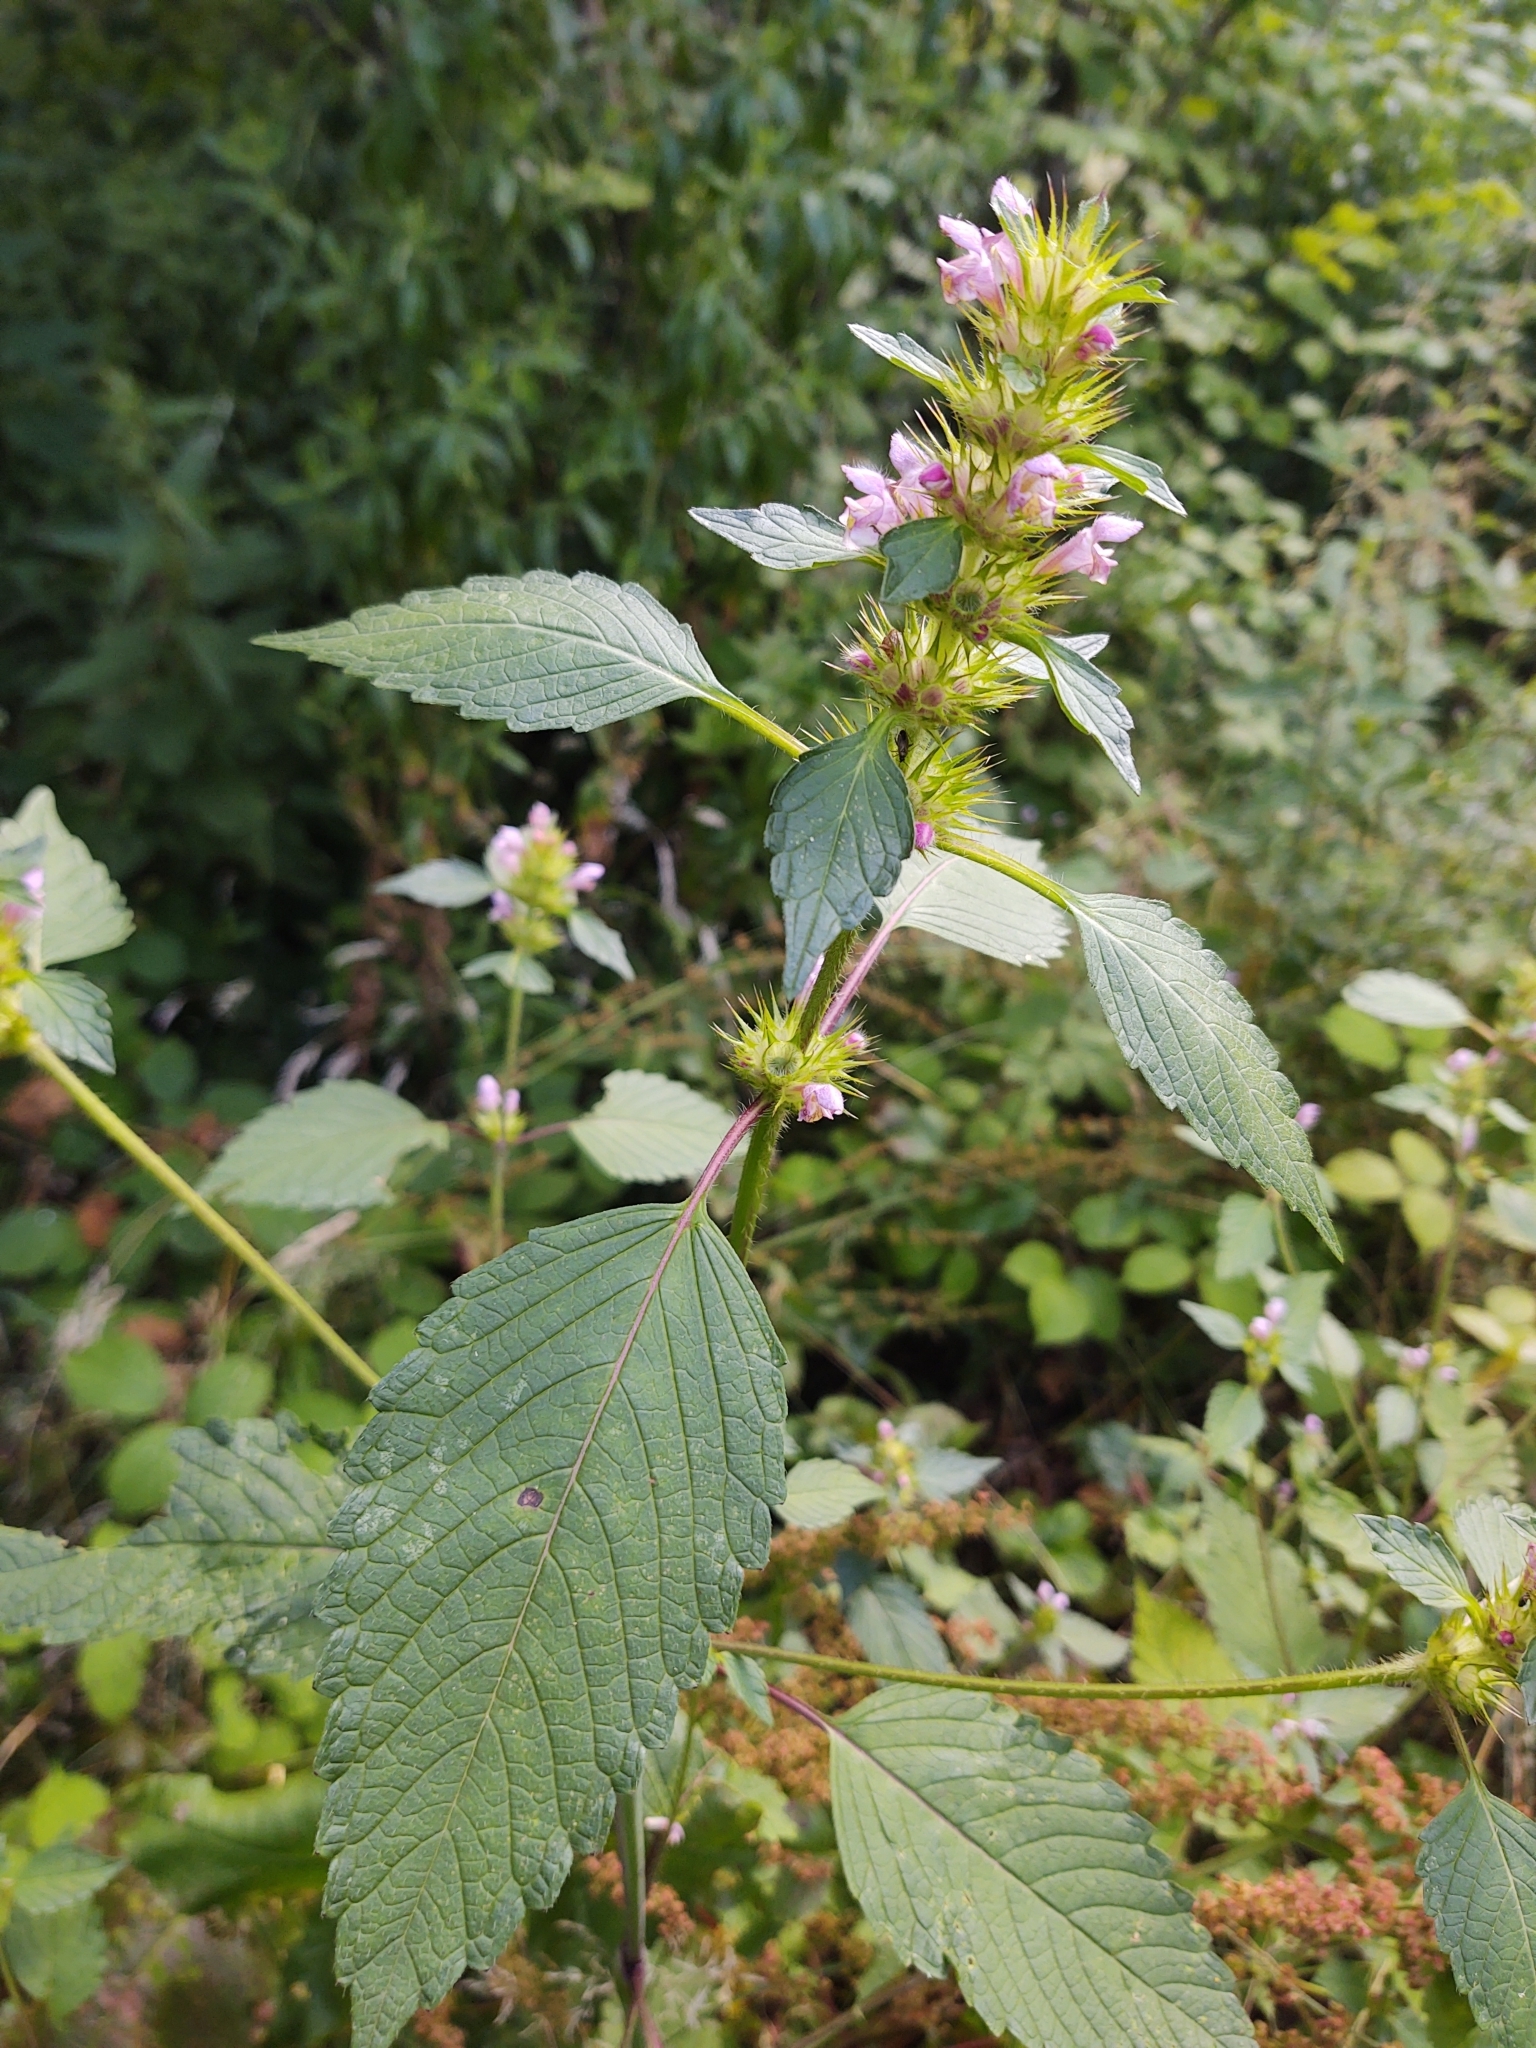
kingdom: Plantae
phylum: Tracheophyta
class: Magnoliopsida
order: Lamiales
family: Lamiaceae
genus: Galeopsis
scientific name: Galeopsis tetrahit
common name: Common hemp-nettle
